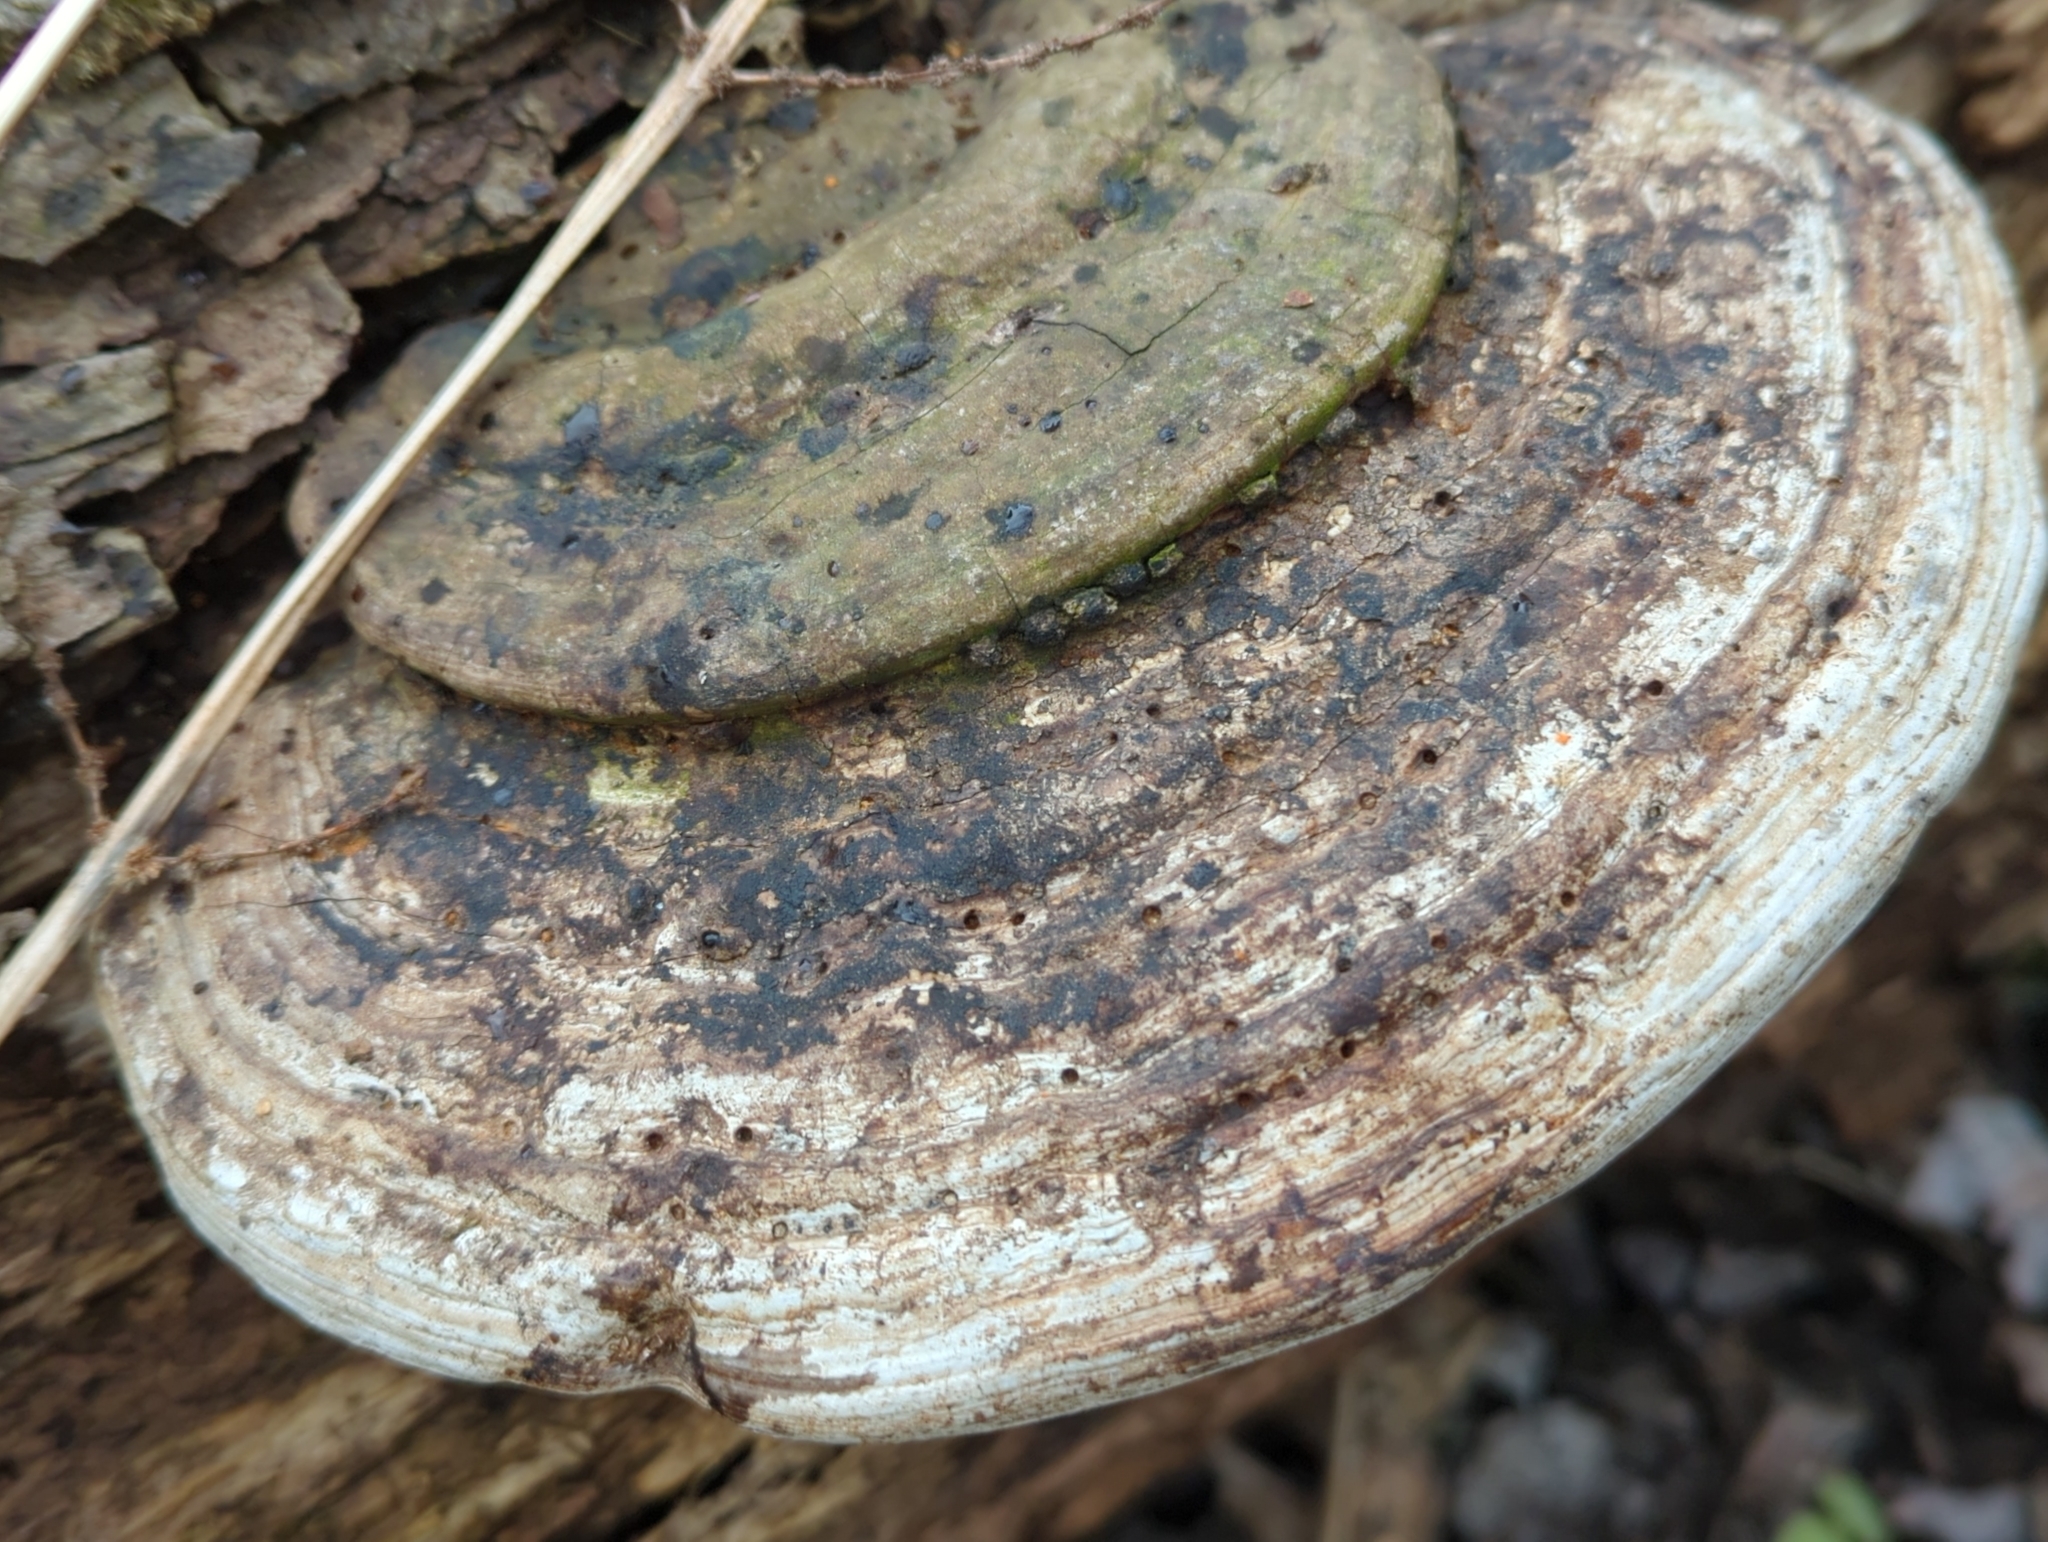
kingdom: Fungi
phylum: Basidiomycota
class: Agaricomycetes
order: Polyporales
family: Polyporaceae
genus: Ganoderma
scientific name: Ganoderma applanatum
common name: Artist's bracket
